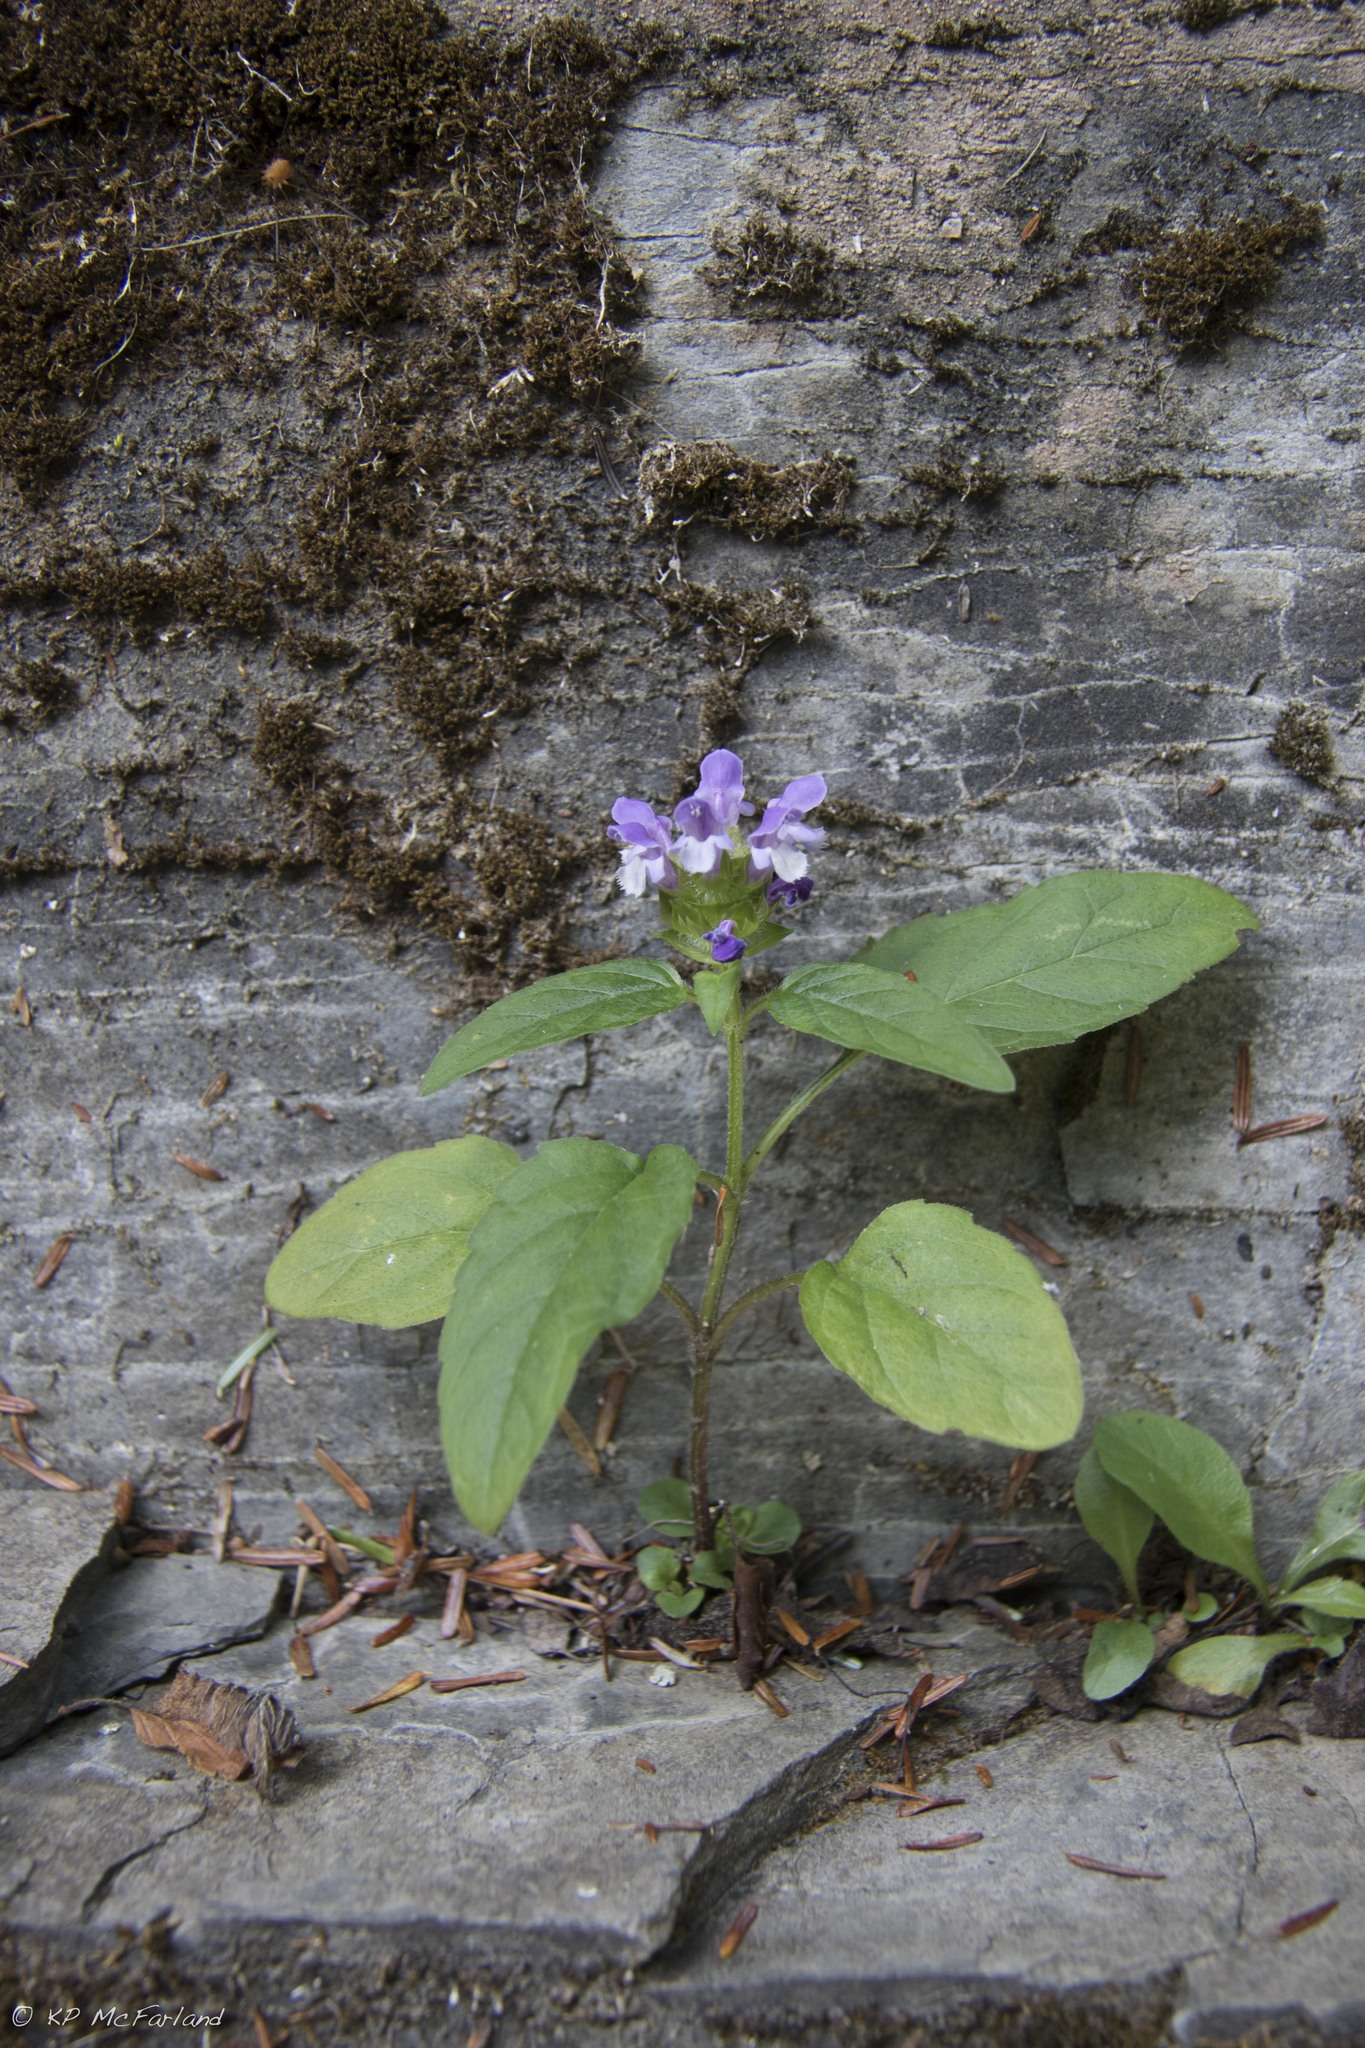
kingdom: Plantae
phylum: Tracheophyta
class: Magnoliopsida
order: Lamiales
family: Lamiaceae
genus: Prunella
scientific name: Prunella vulgaris
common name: Heal-all
